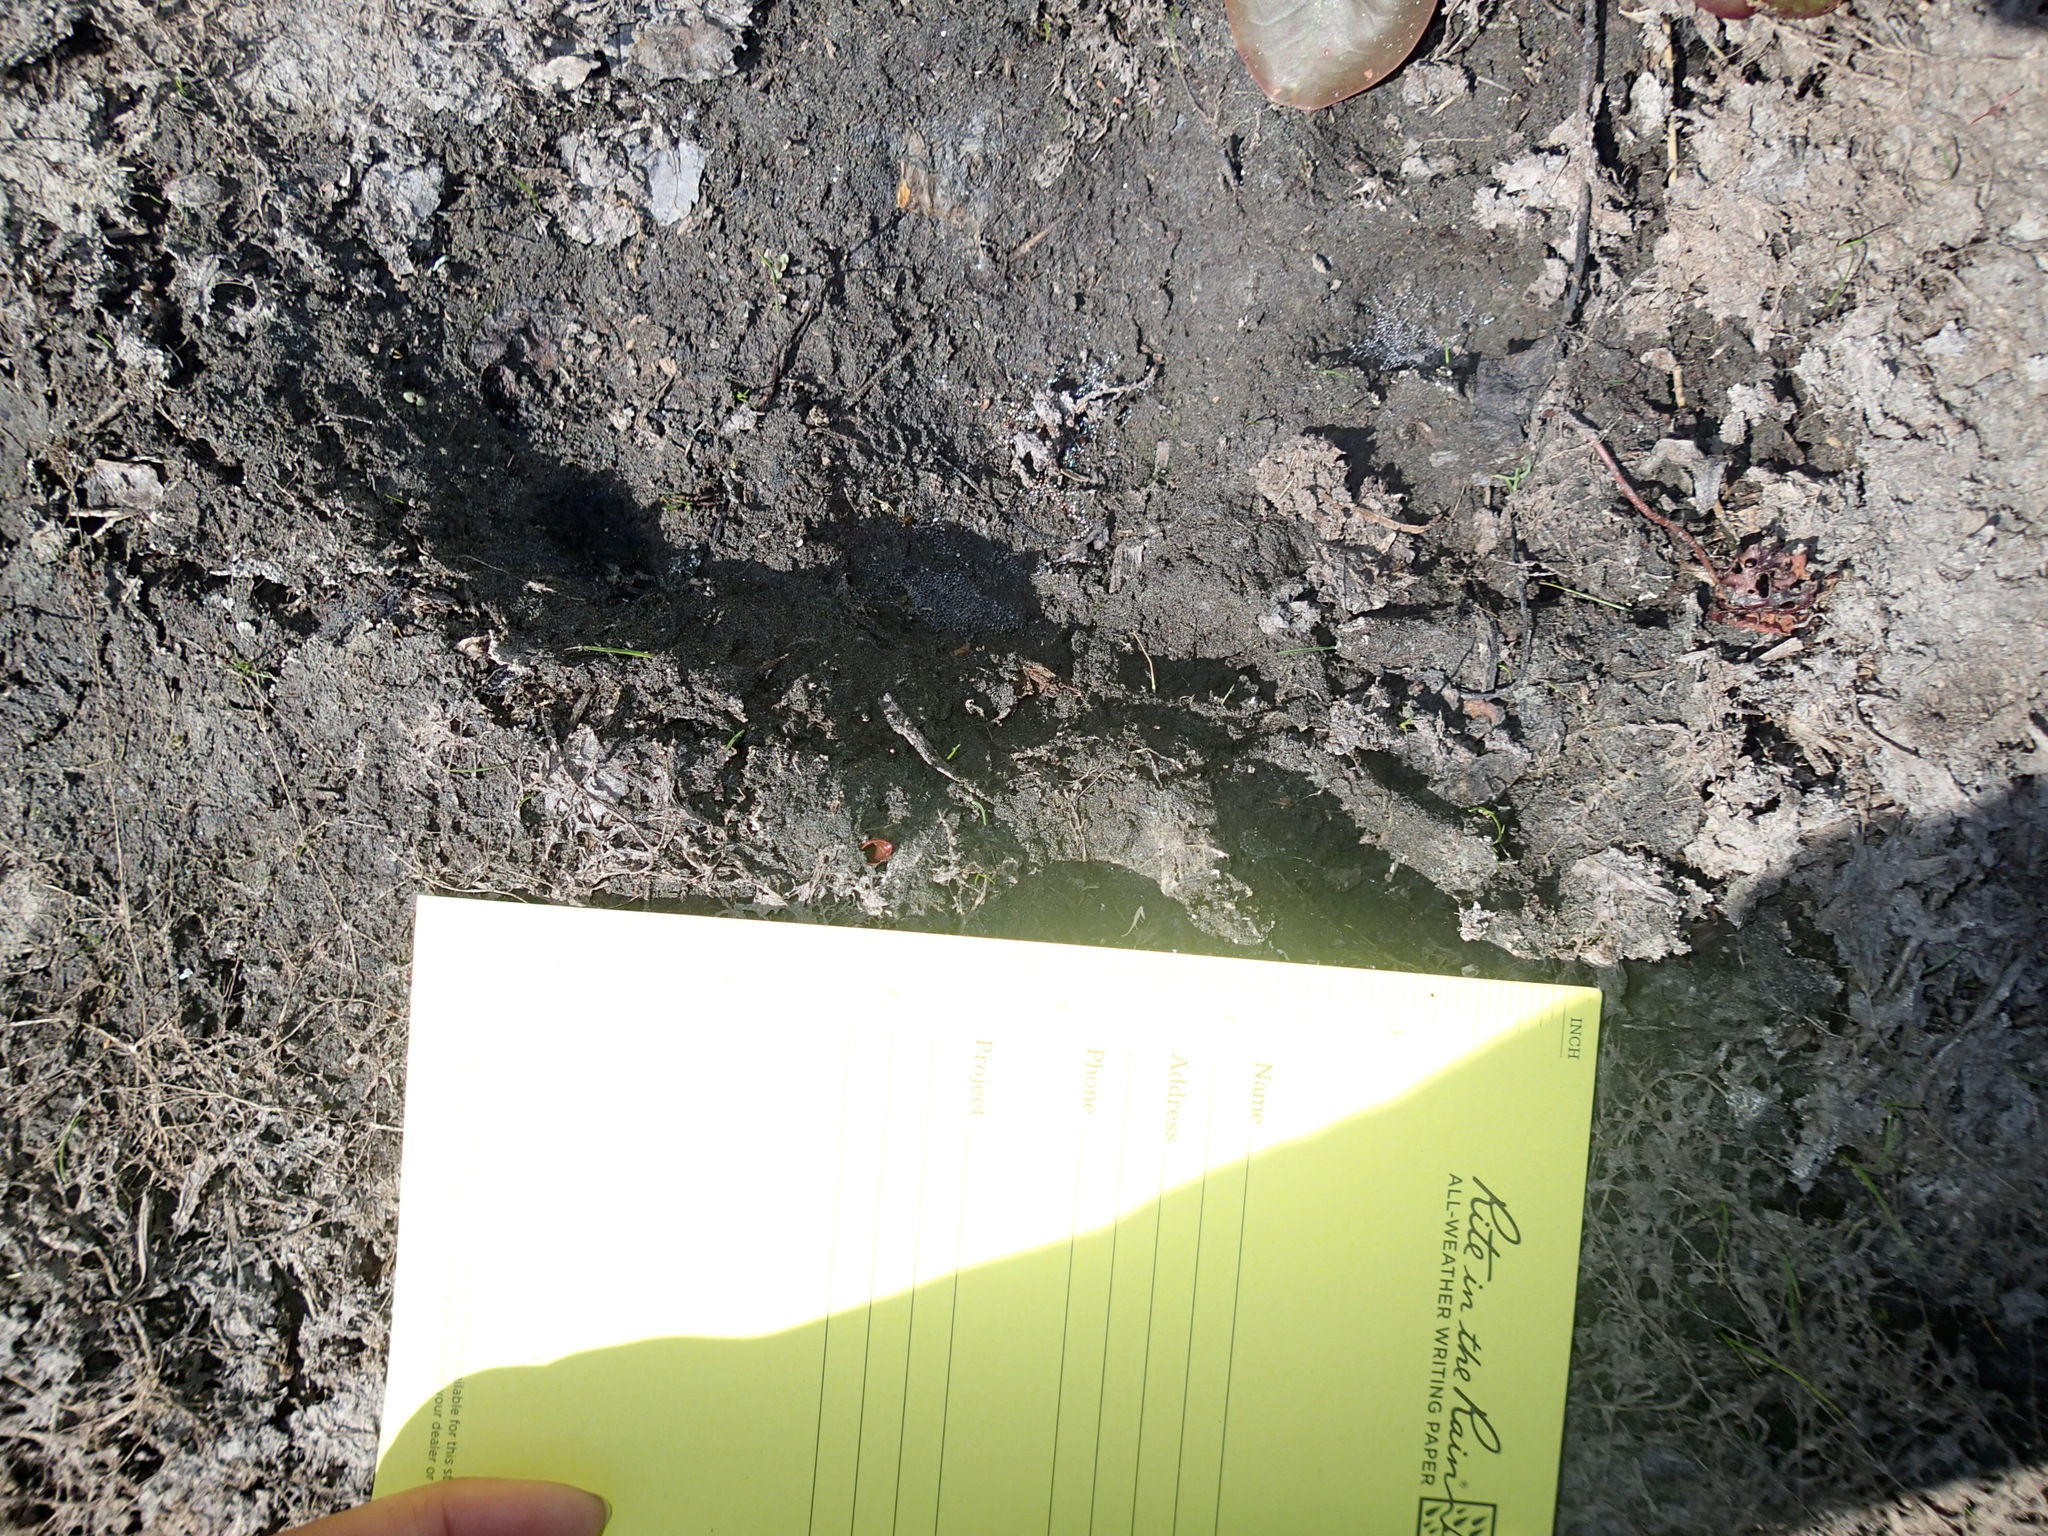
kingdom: Animalia
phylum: Chordata
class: Mammalia
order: Carnivora
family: Ursidae
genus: Ursus
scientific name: Ursus americanus
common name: American black bear
